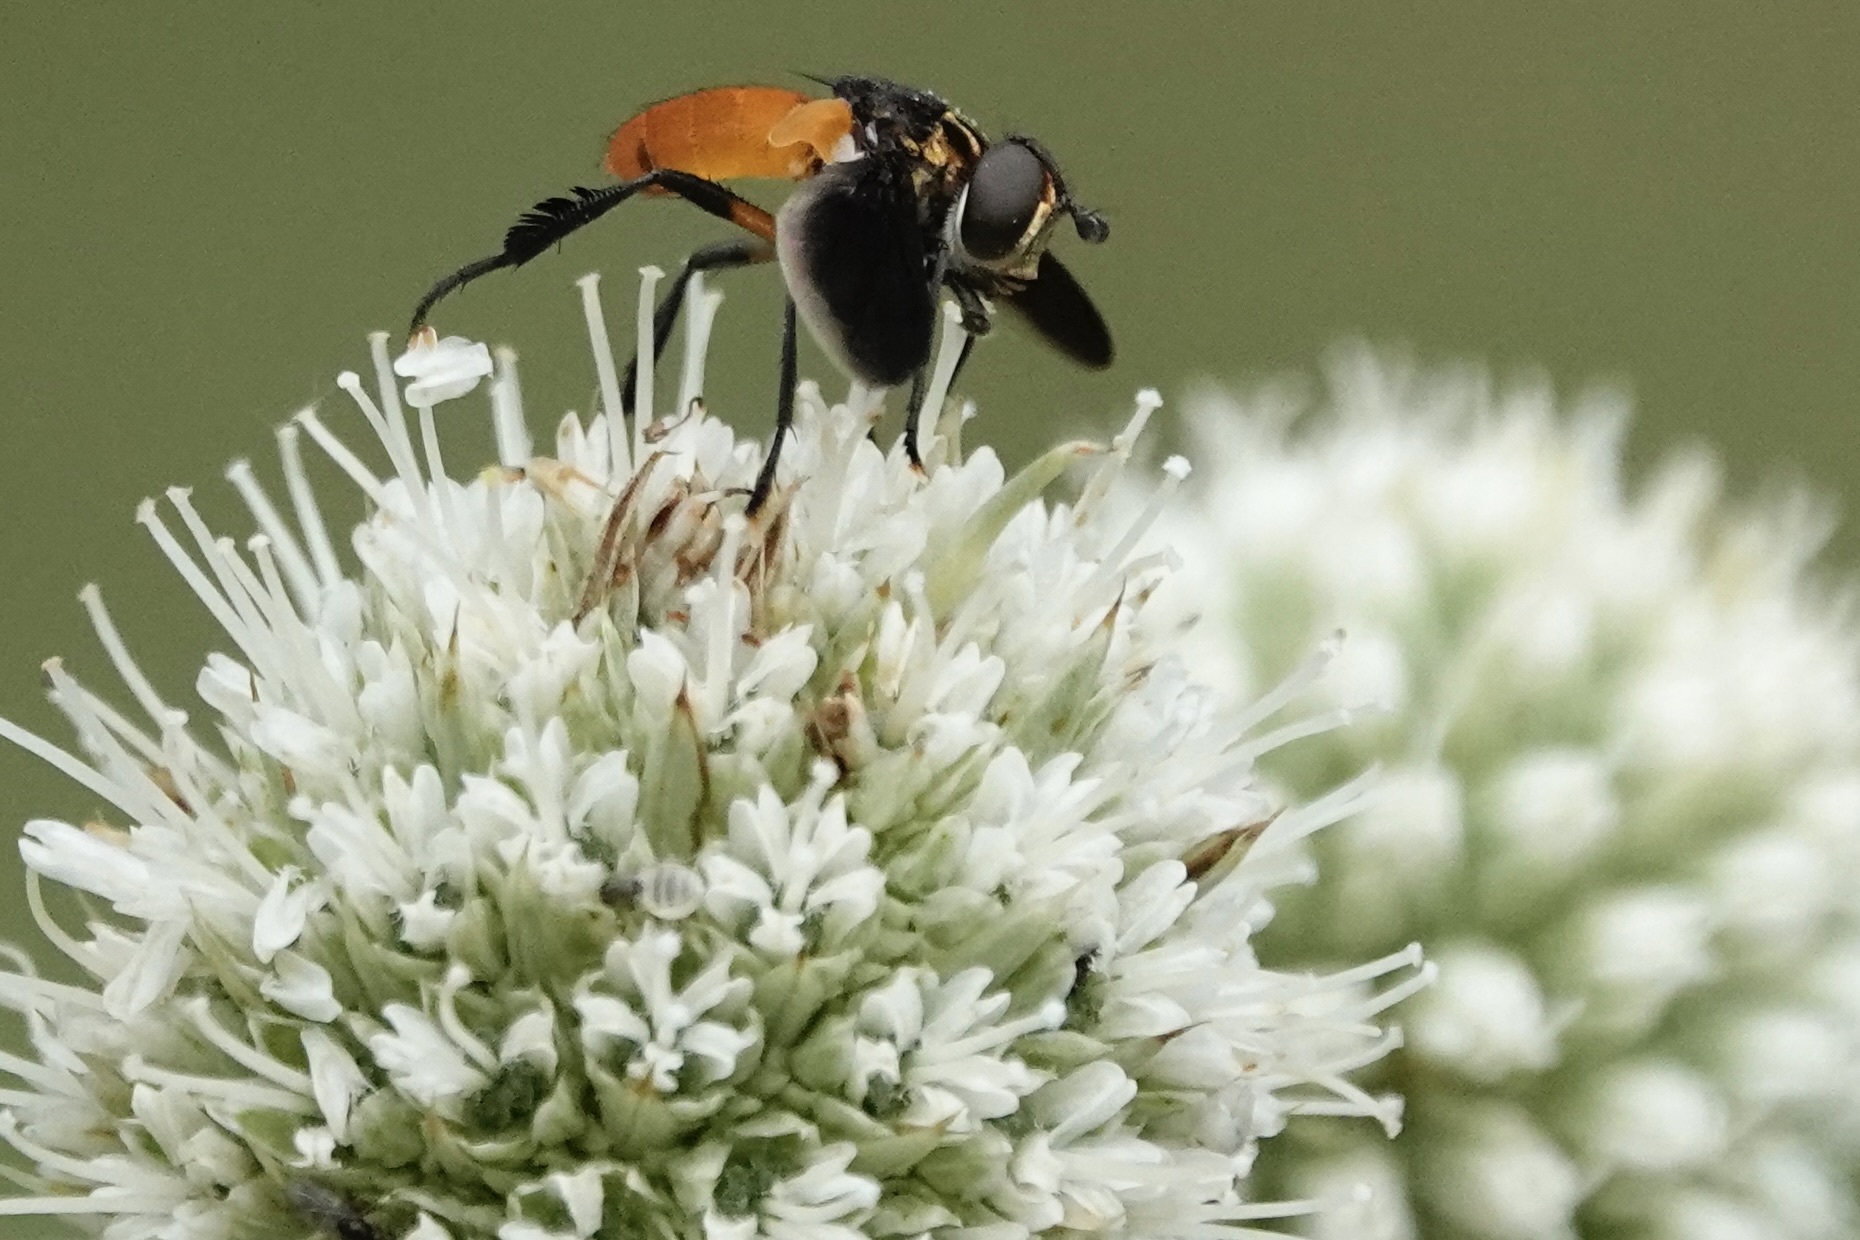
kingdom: Animalia
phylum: Arthropoda
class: Insecta
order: Diptera
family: Tachinidae
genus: Trichopoda
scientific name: Trichopoda pennipes
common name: Tachinid fly
